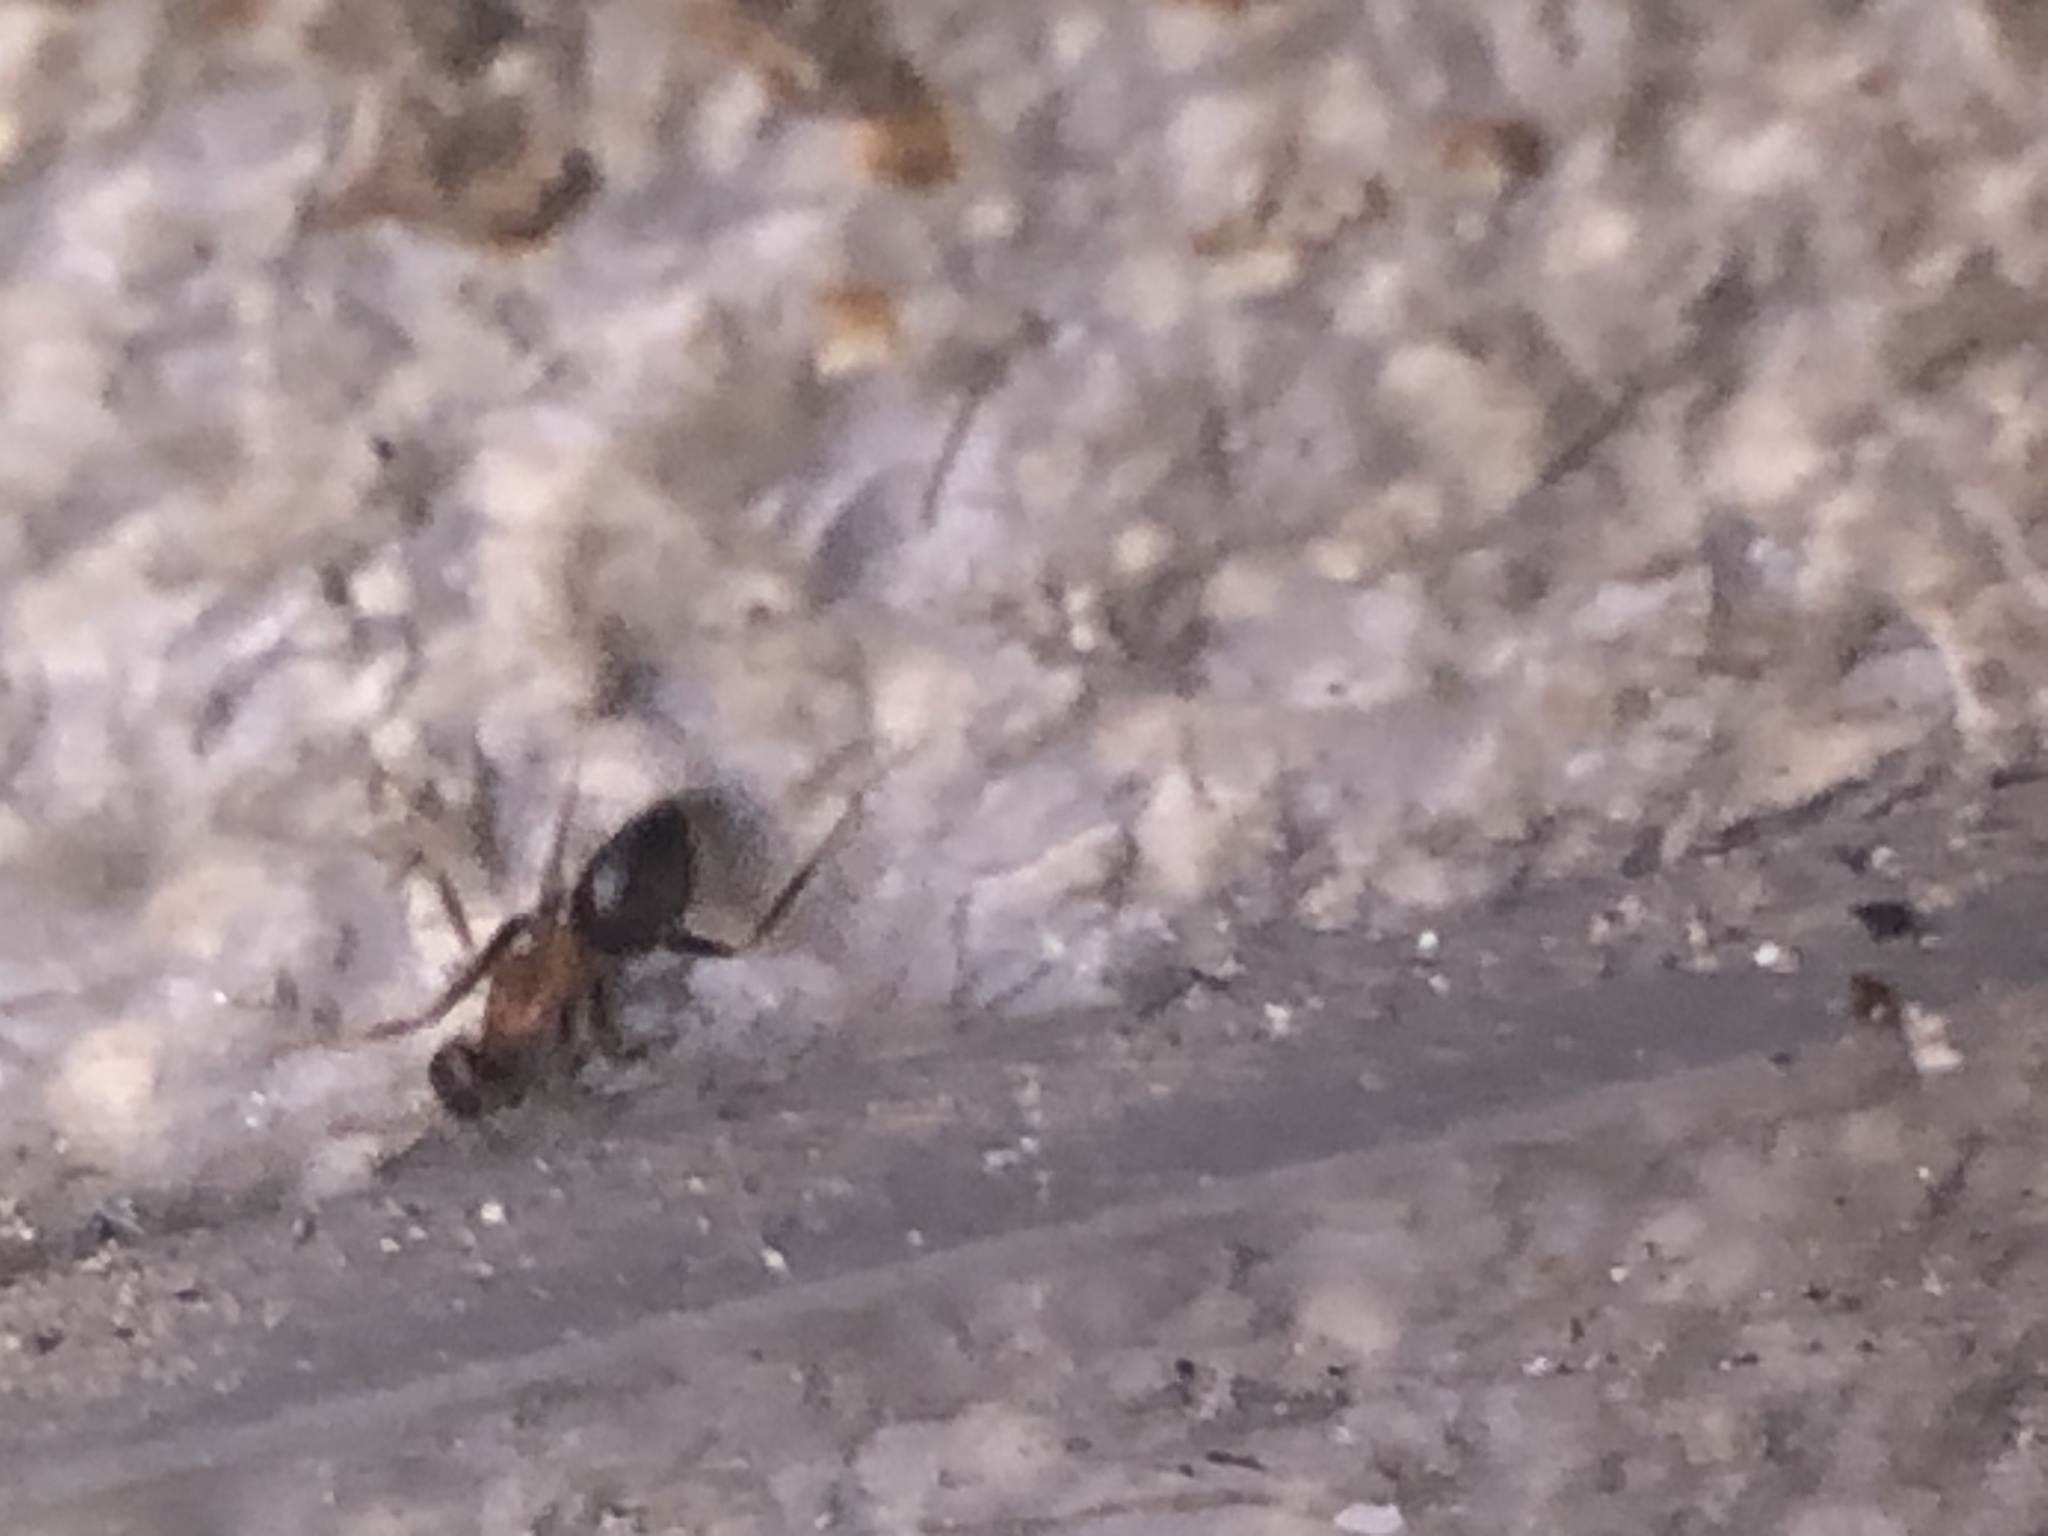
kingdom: Animalia
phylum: Arthropoda
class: Insecta
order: Hymenoptera
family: Formicidae
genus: Lasius
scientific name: Lasius emarginatus
